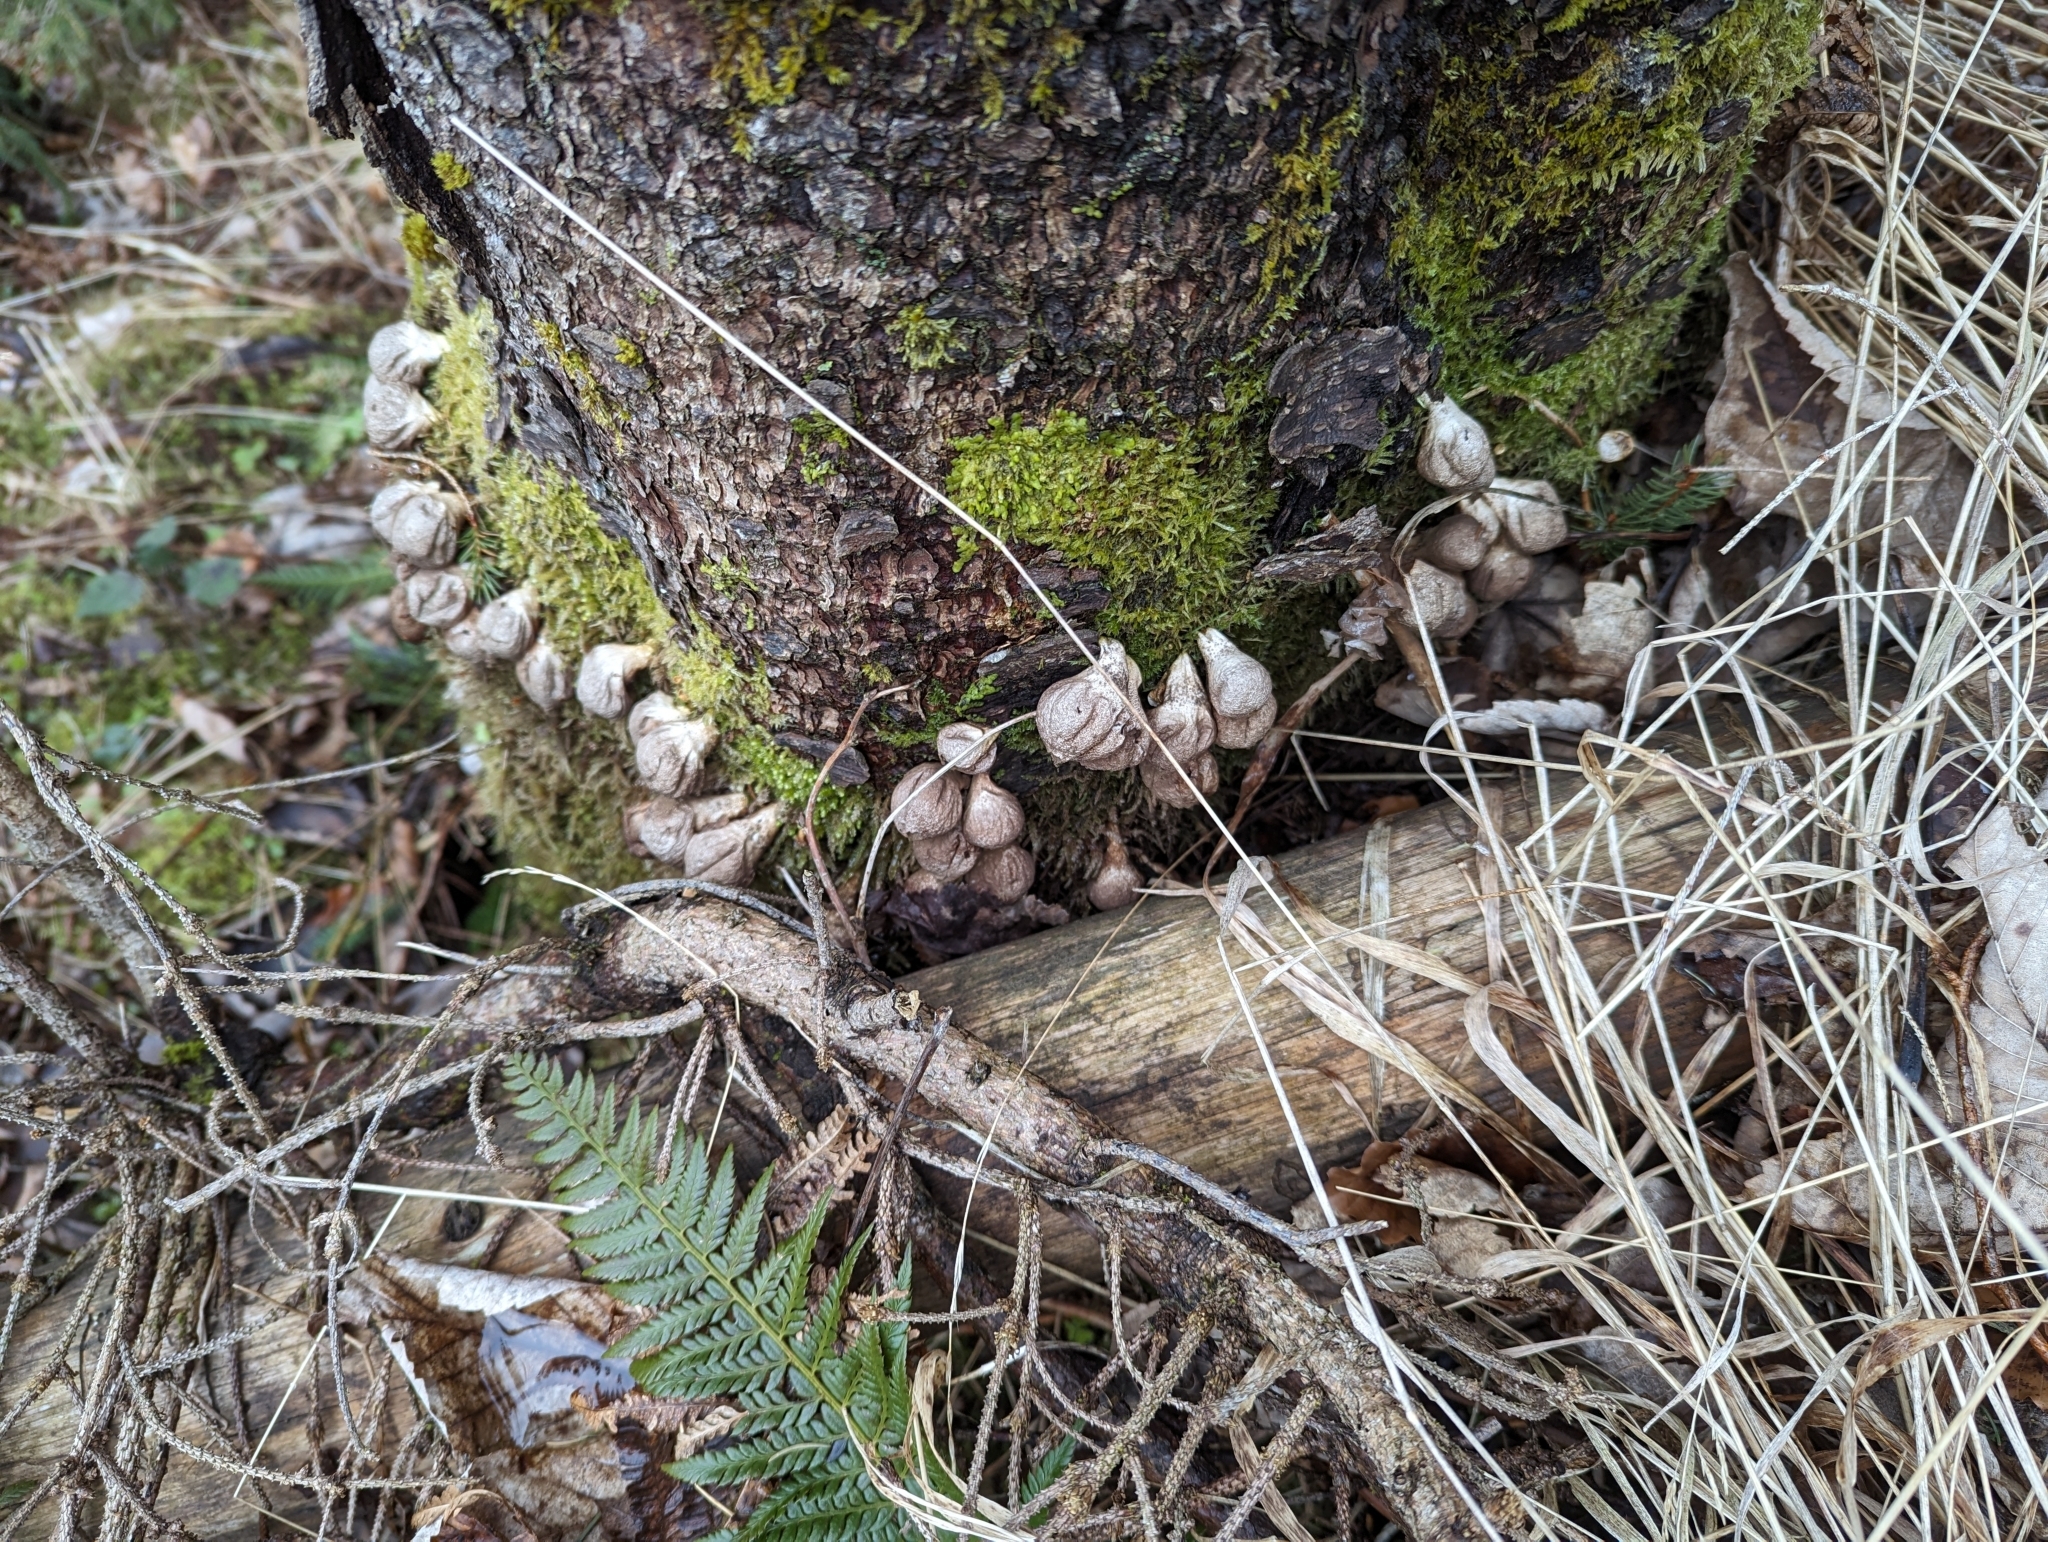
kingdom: Fungi
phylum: Basidiomycota
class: Agaricomycetes
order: Agaricales
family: Lycoperdaceae
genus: Apioperdon
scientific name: Apioperdon pyriforme
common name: Pear-shaped puffball
